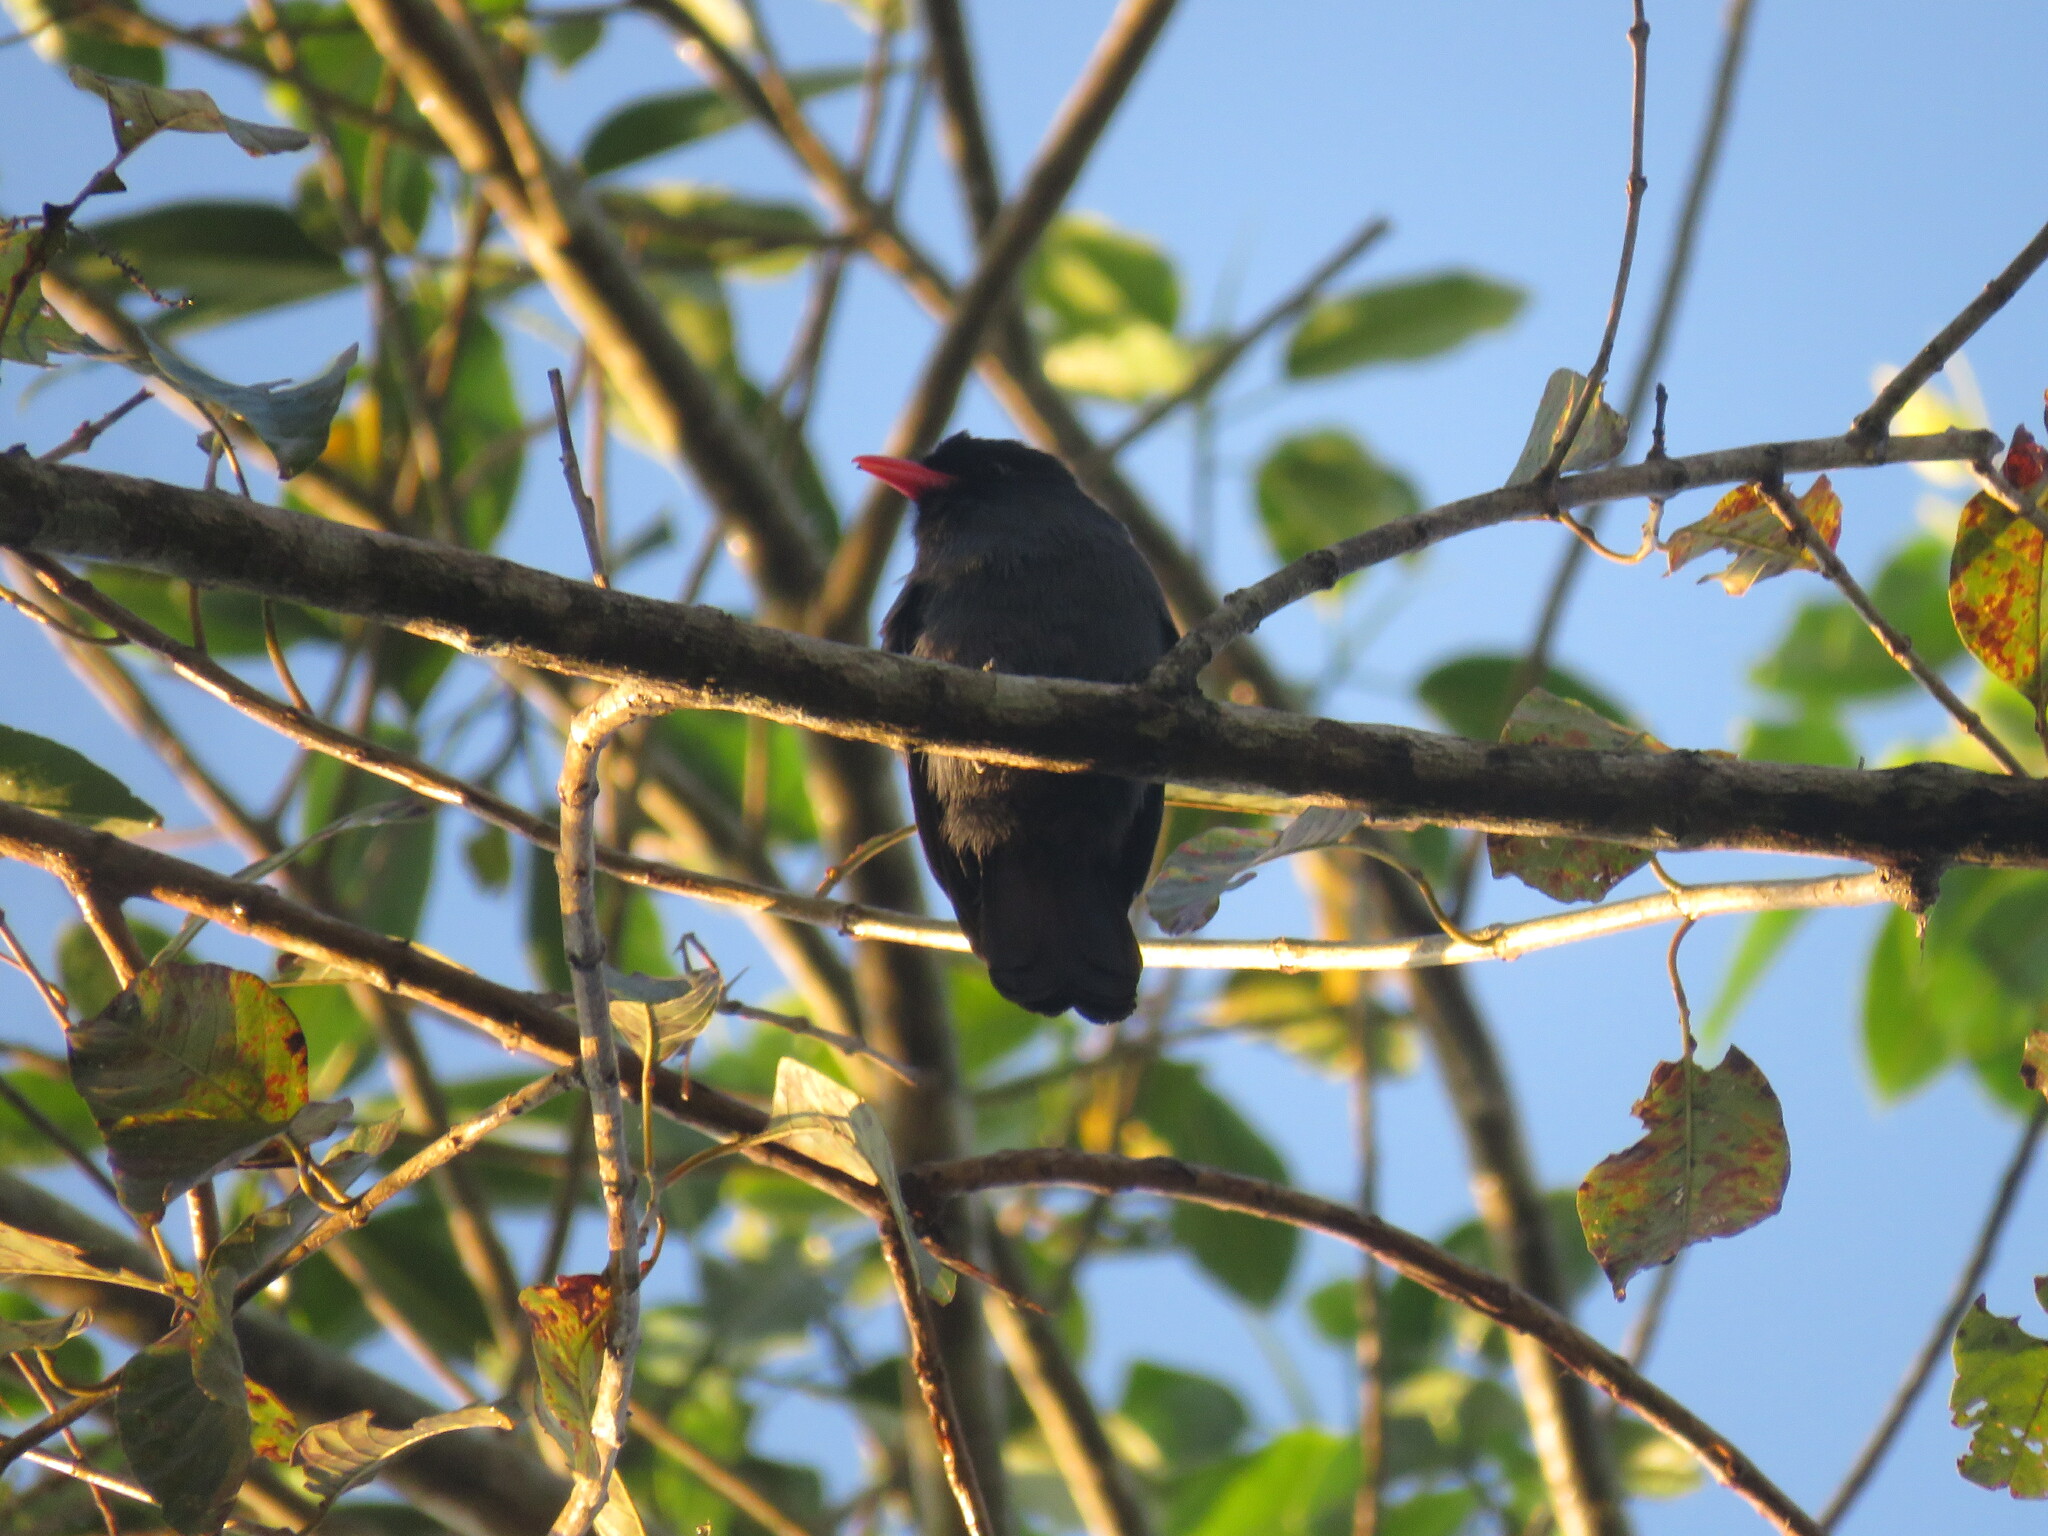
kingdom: Animalia
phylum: Chordata
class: Aves
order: Piciformes
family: Bucconidae
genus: Monasa
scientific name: Monasa nigrifrons
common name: Black-fronted nunbird
